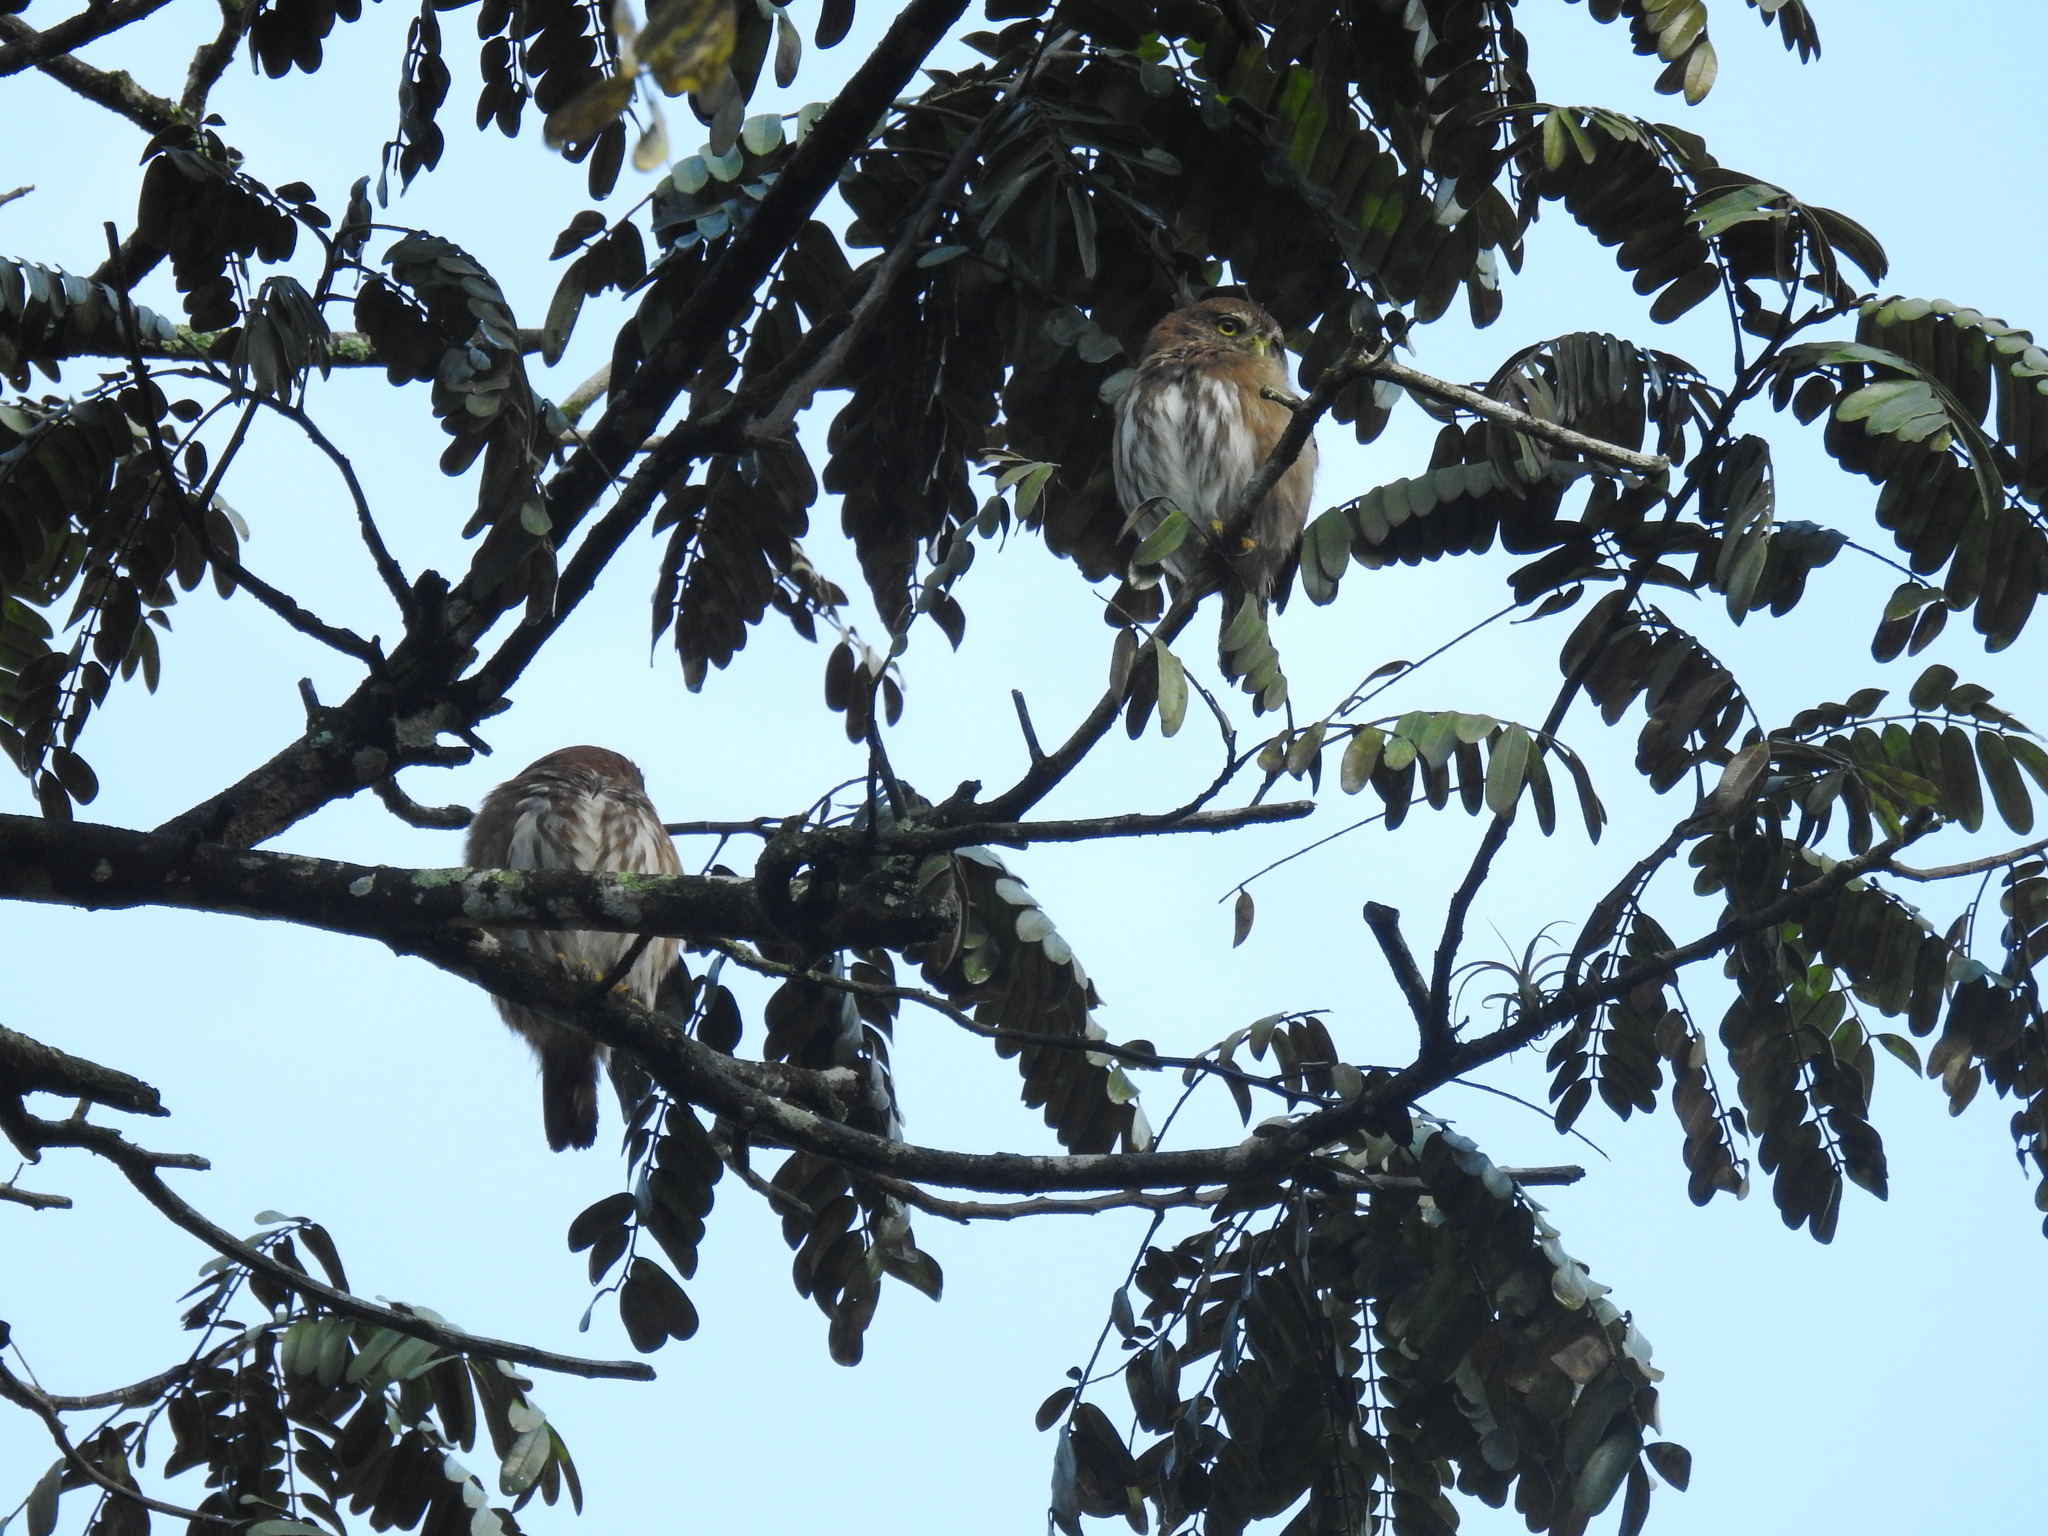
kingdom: Animalia
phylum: Chordata
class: Aves
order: Strigiformes
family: Strigidae
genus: Glaucidium
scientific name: Glaucidium brasilianum
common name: Ferruginous pygmy-owl
